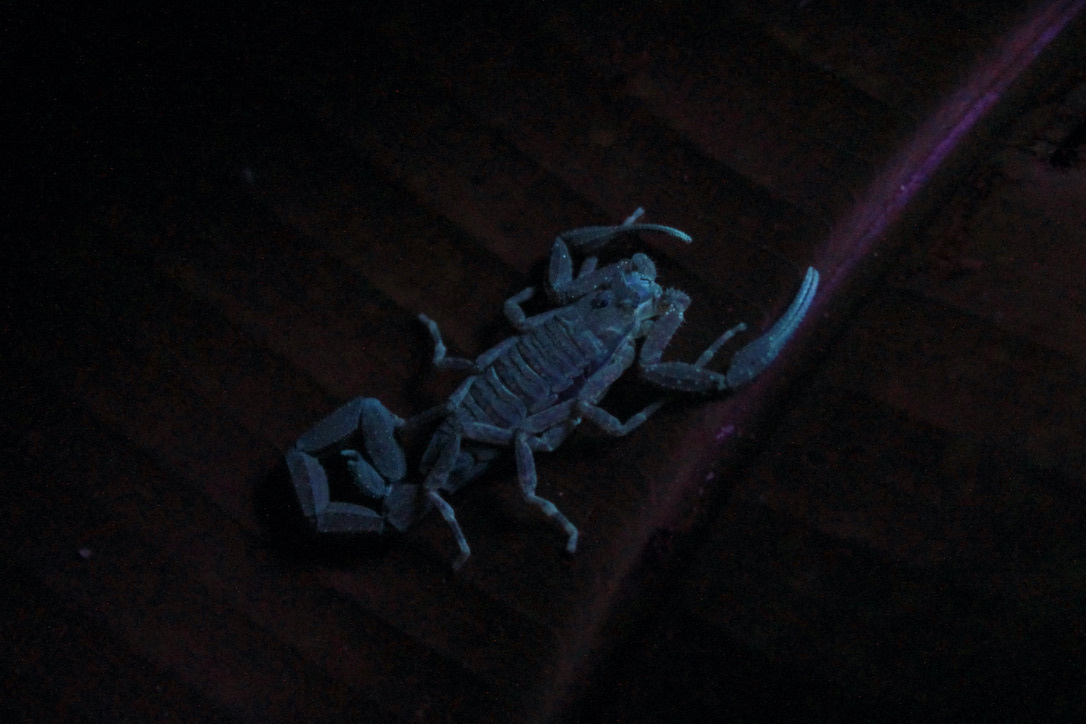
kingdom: Animalia
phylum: Arthropoda
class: Arachnida
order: Scorpiones
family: Buthidae
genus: Tityus
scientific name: Tityus trinitatis
